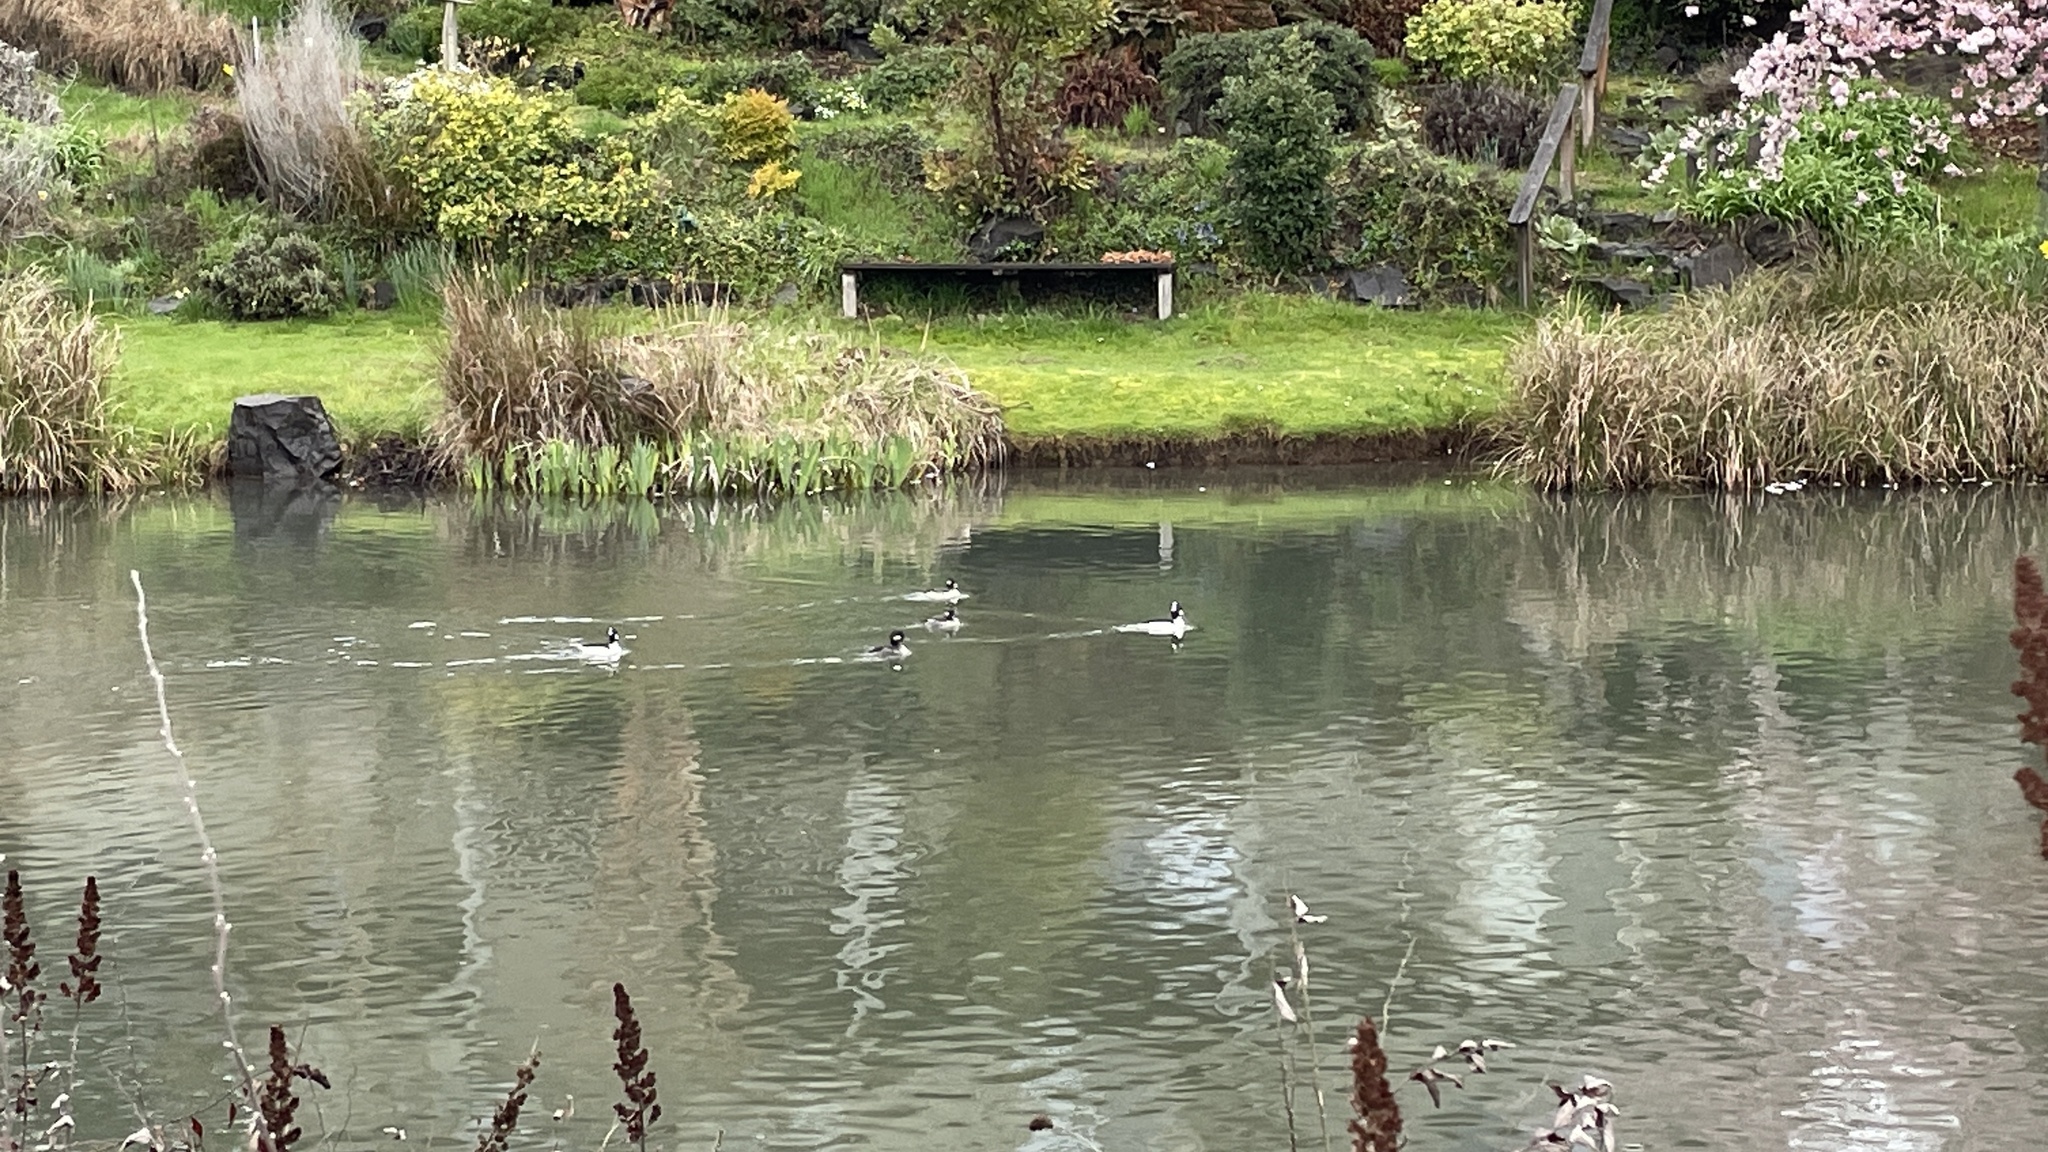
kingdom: Animalia
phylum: Chordata
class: Aves
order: Anseriformes
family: Anatidae
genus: Bucephala
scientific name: Bucephala albeola
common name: Bufflehead
